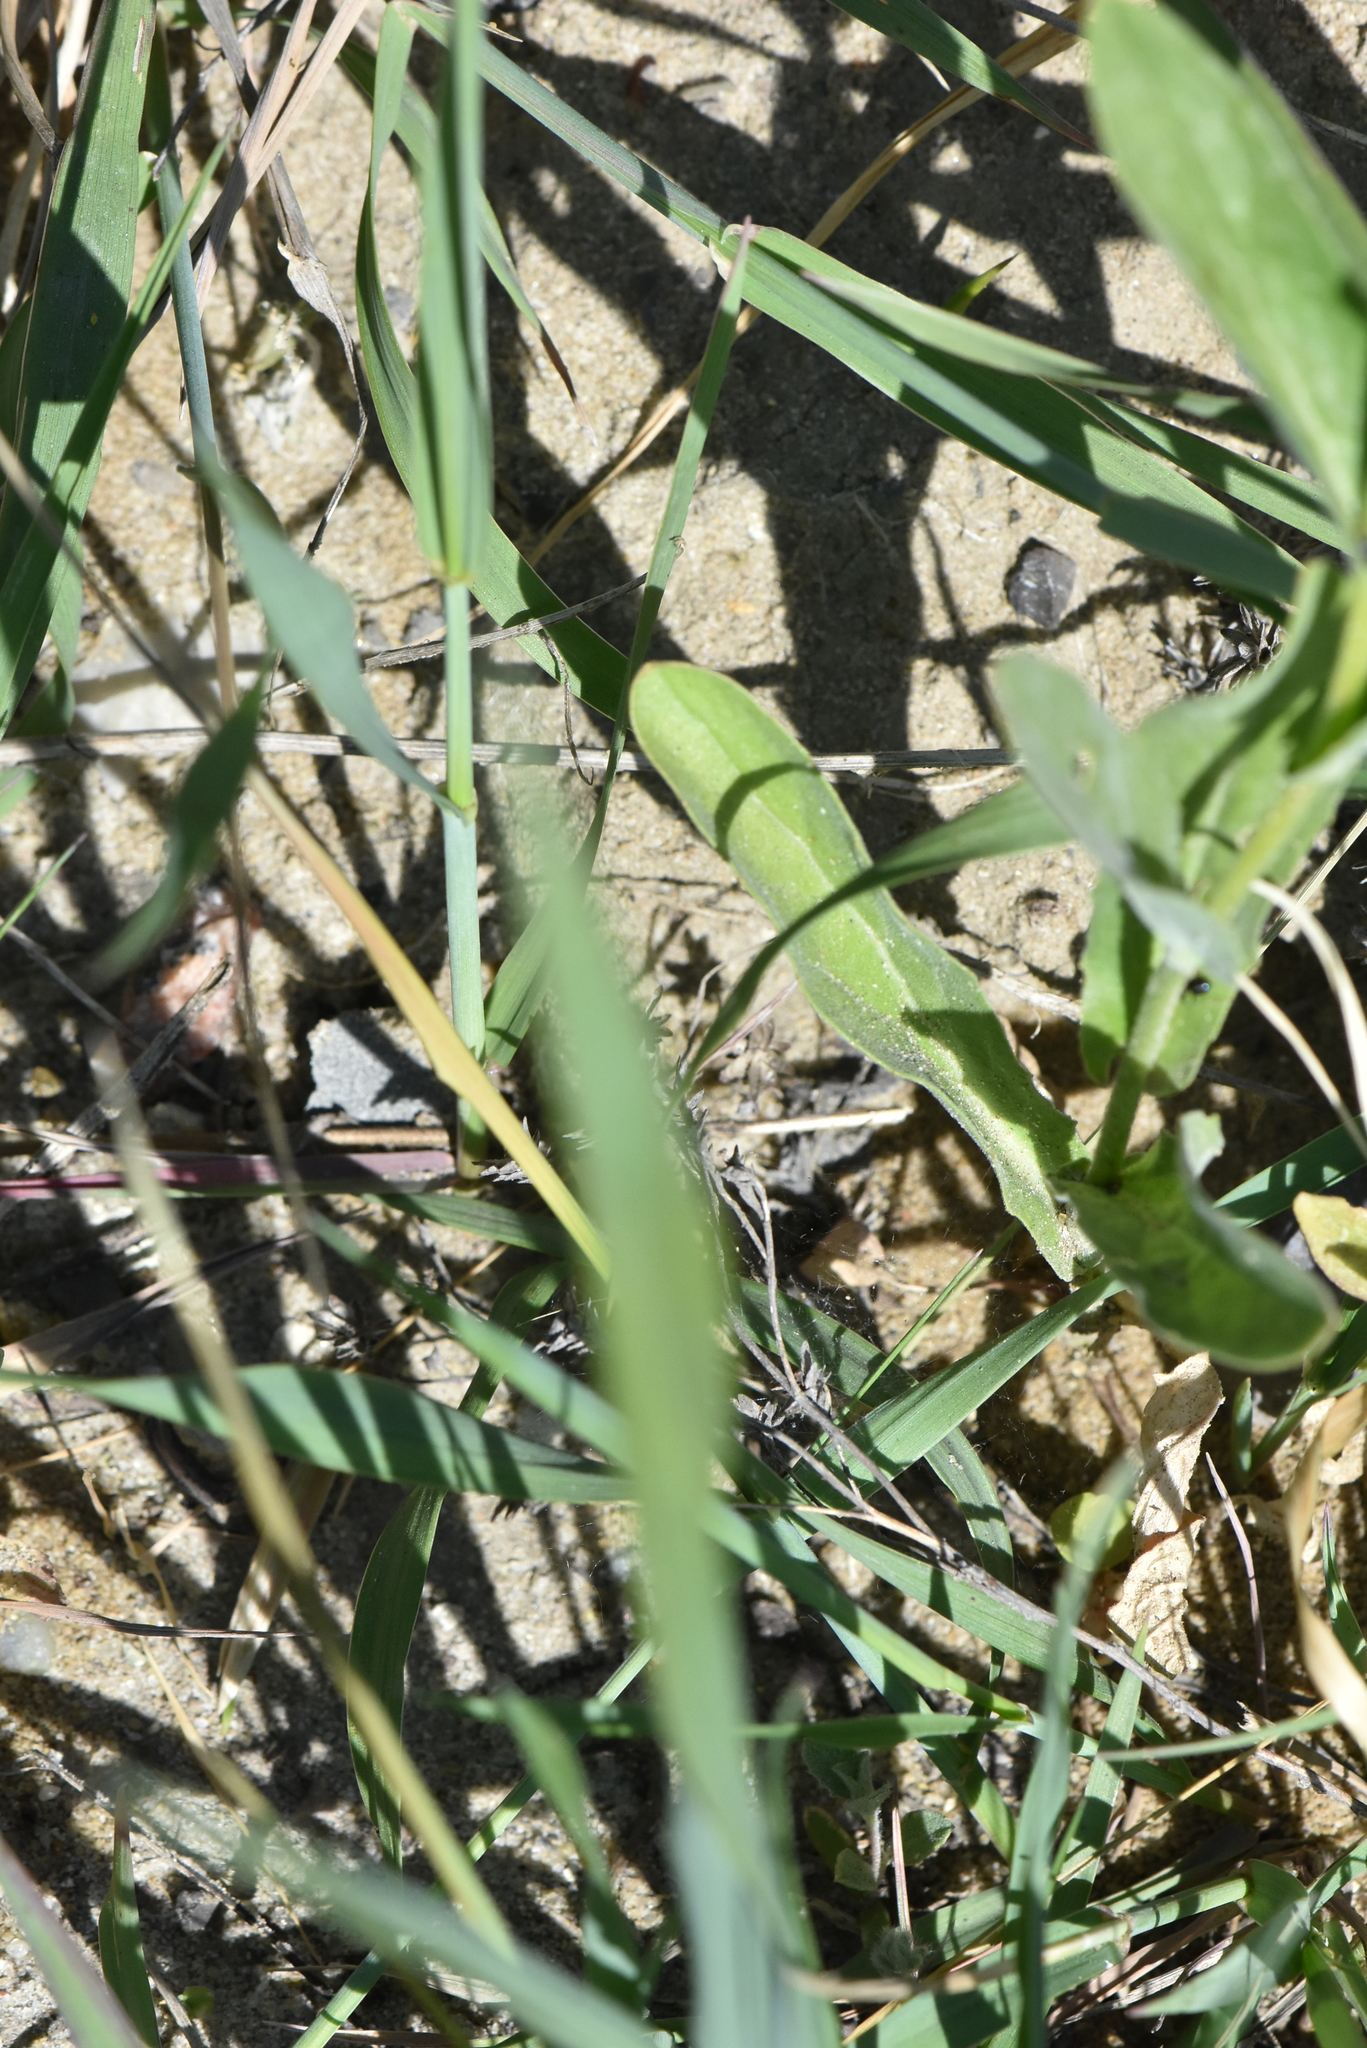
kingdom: Plantae
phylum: Tracheophyta
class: Magnoliopsida
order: Brassicales
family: Brassicaceae
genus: Lepidium
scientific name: Lepidium draba
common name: Hoary cress
